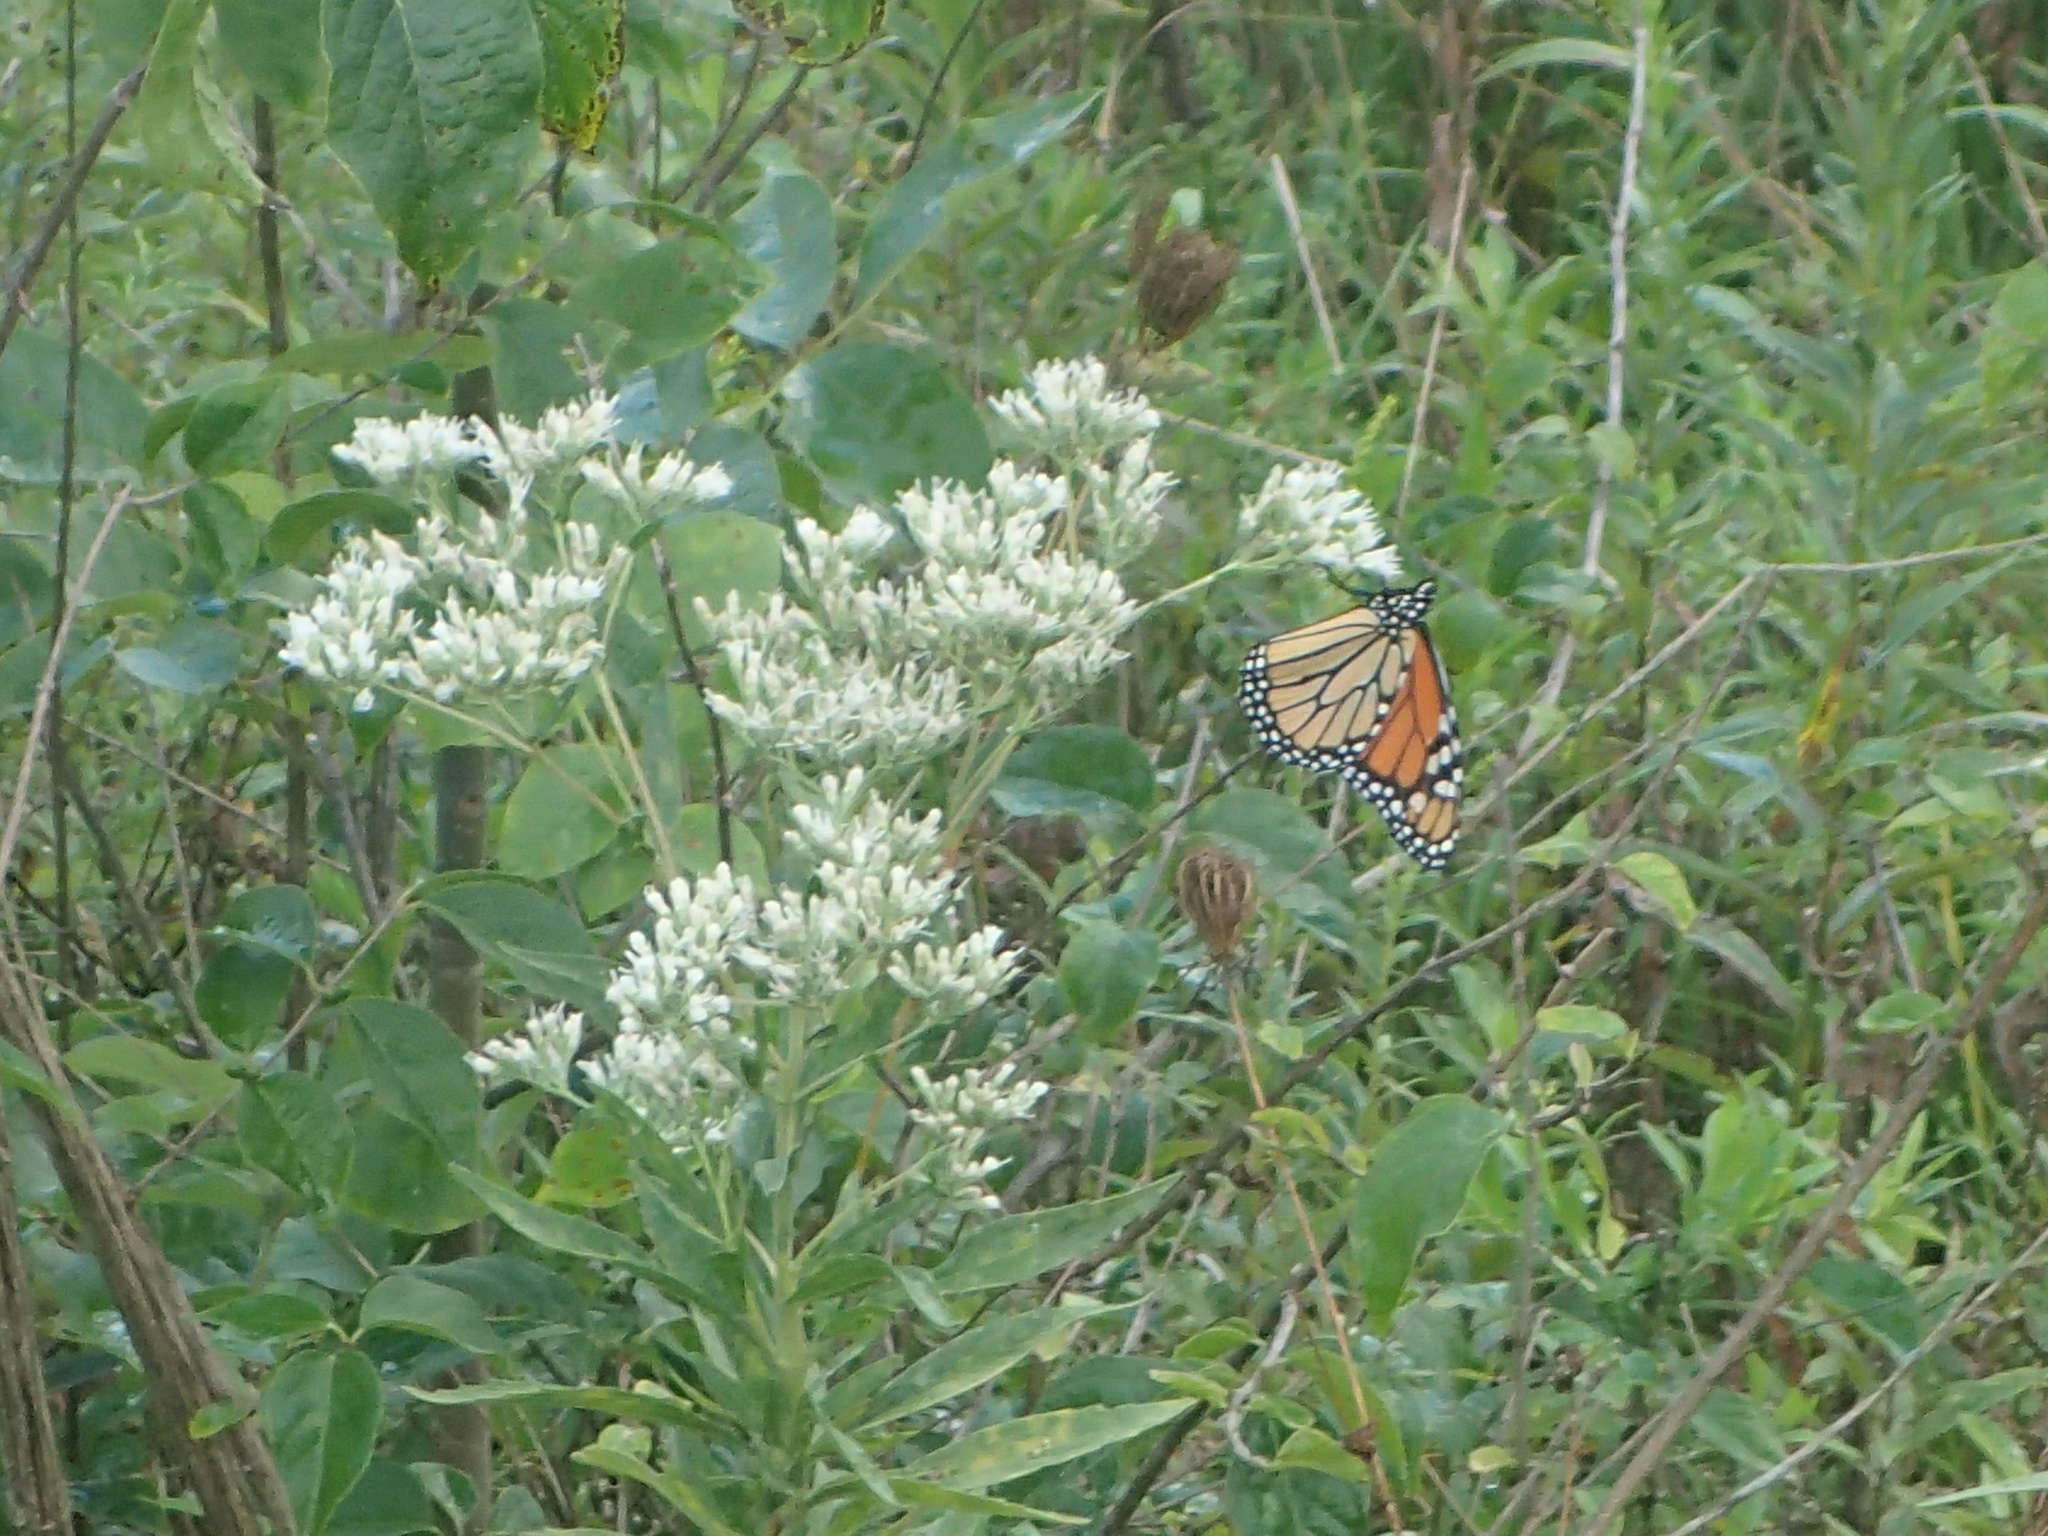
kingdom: Animalia
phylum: Arthropoda
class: Insecta
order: Lepidoptera
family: Nymphalidae
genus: Danaus
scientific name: Danaus plexippus
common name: Monarch
